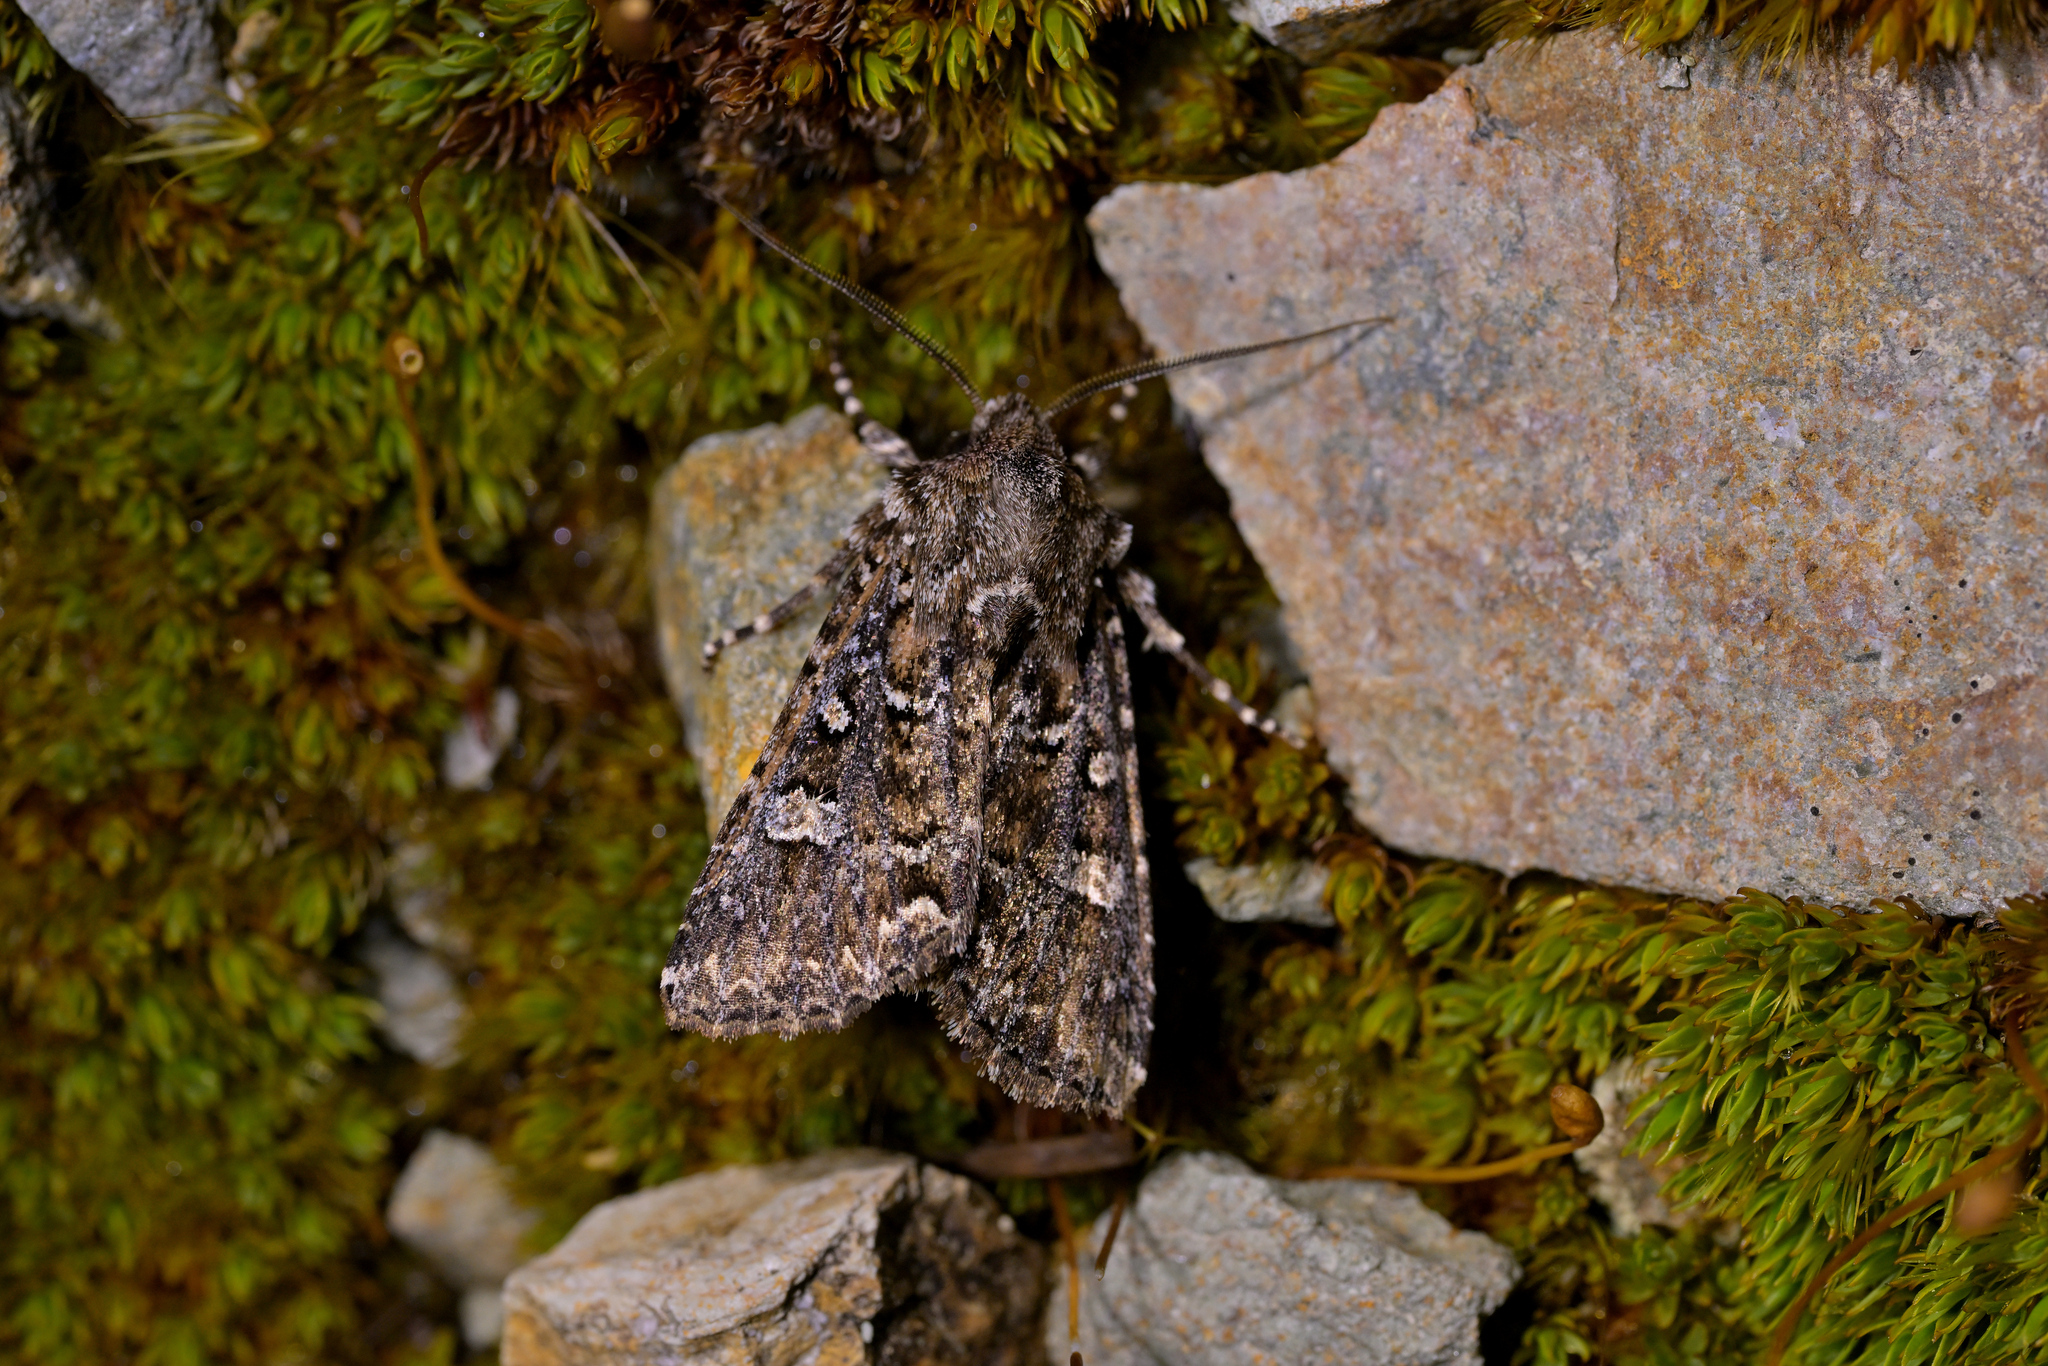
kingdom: Animalia
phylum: Arthropoda
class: Insecta
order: Lepidoptera
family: Noctuidae
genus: Ichneutica
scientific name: Ichneutica lithias
